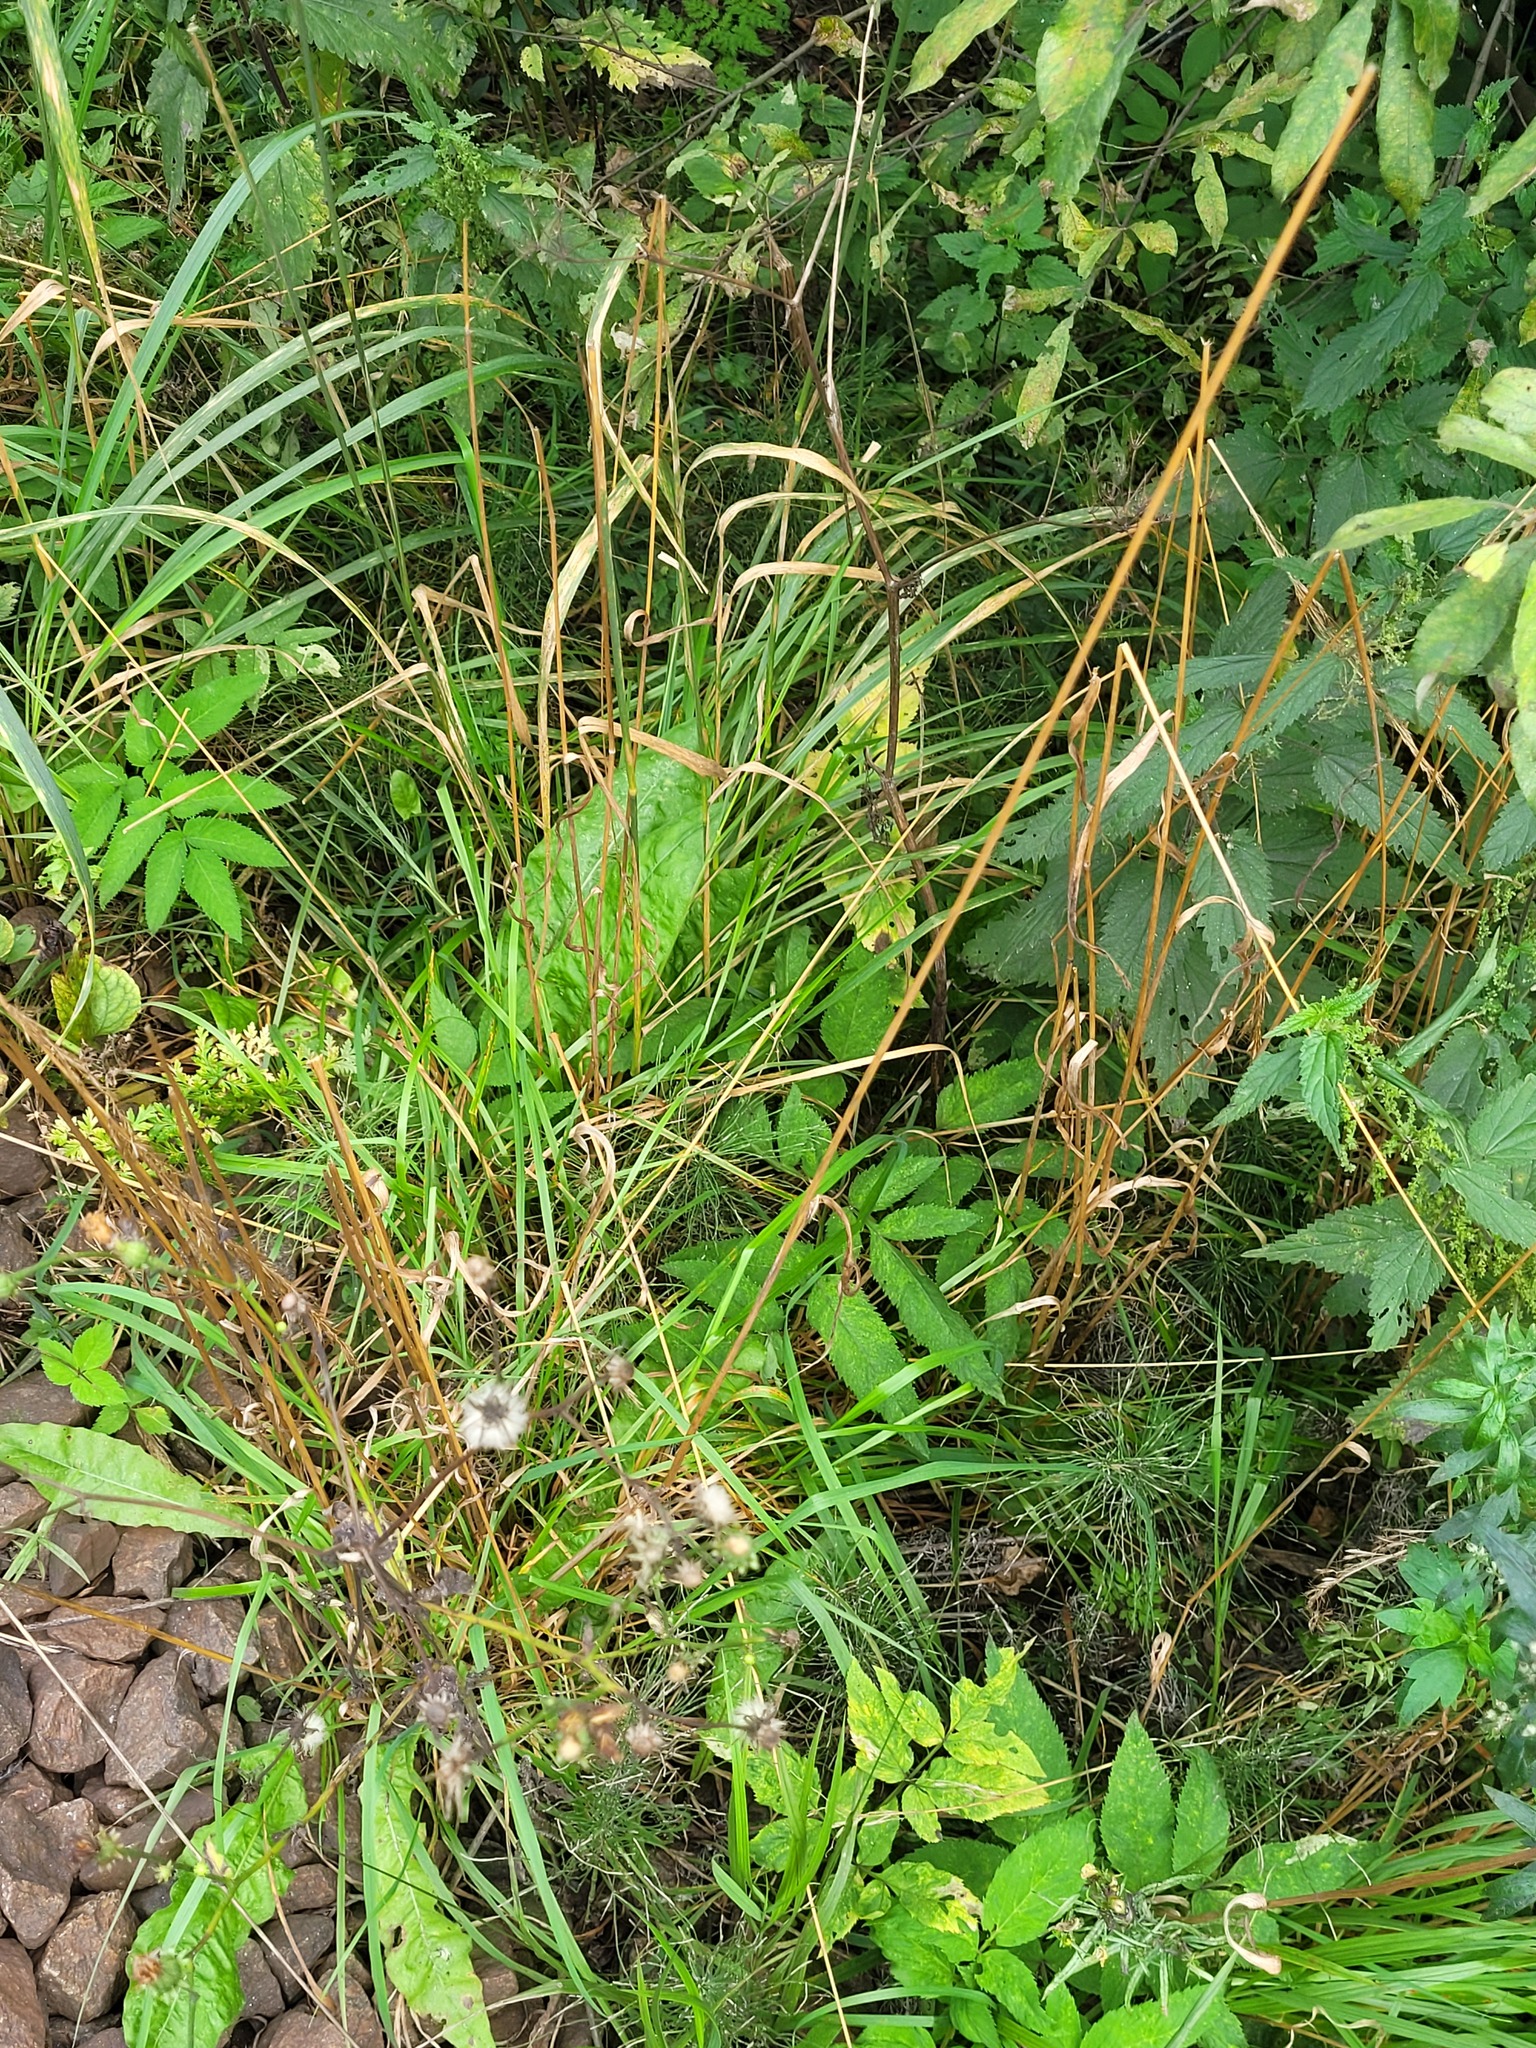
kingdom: Plantae
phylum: Tracheophyta
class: Liliopsida
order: Poales
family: Poaceae
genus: Arrhenatherum
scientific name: Arrhenatherum elatius
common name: Tall oatgrass
